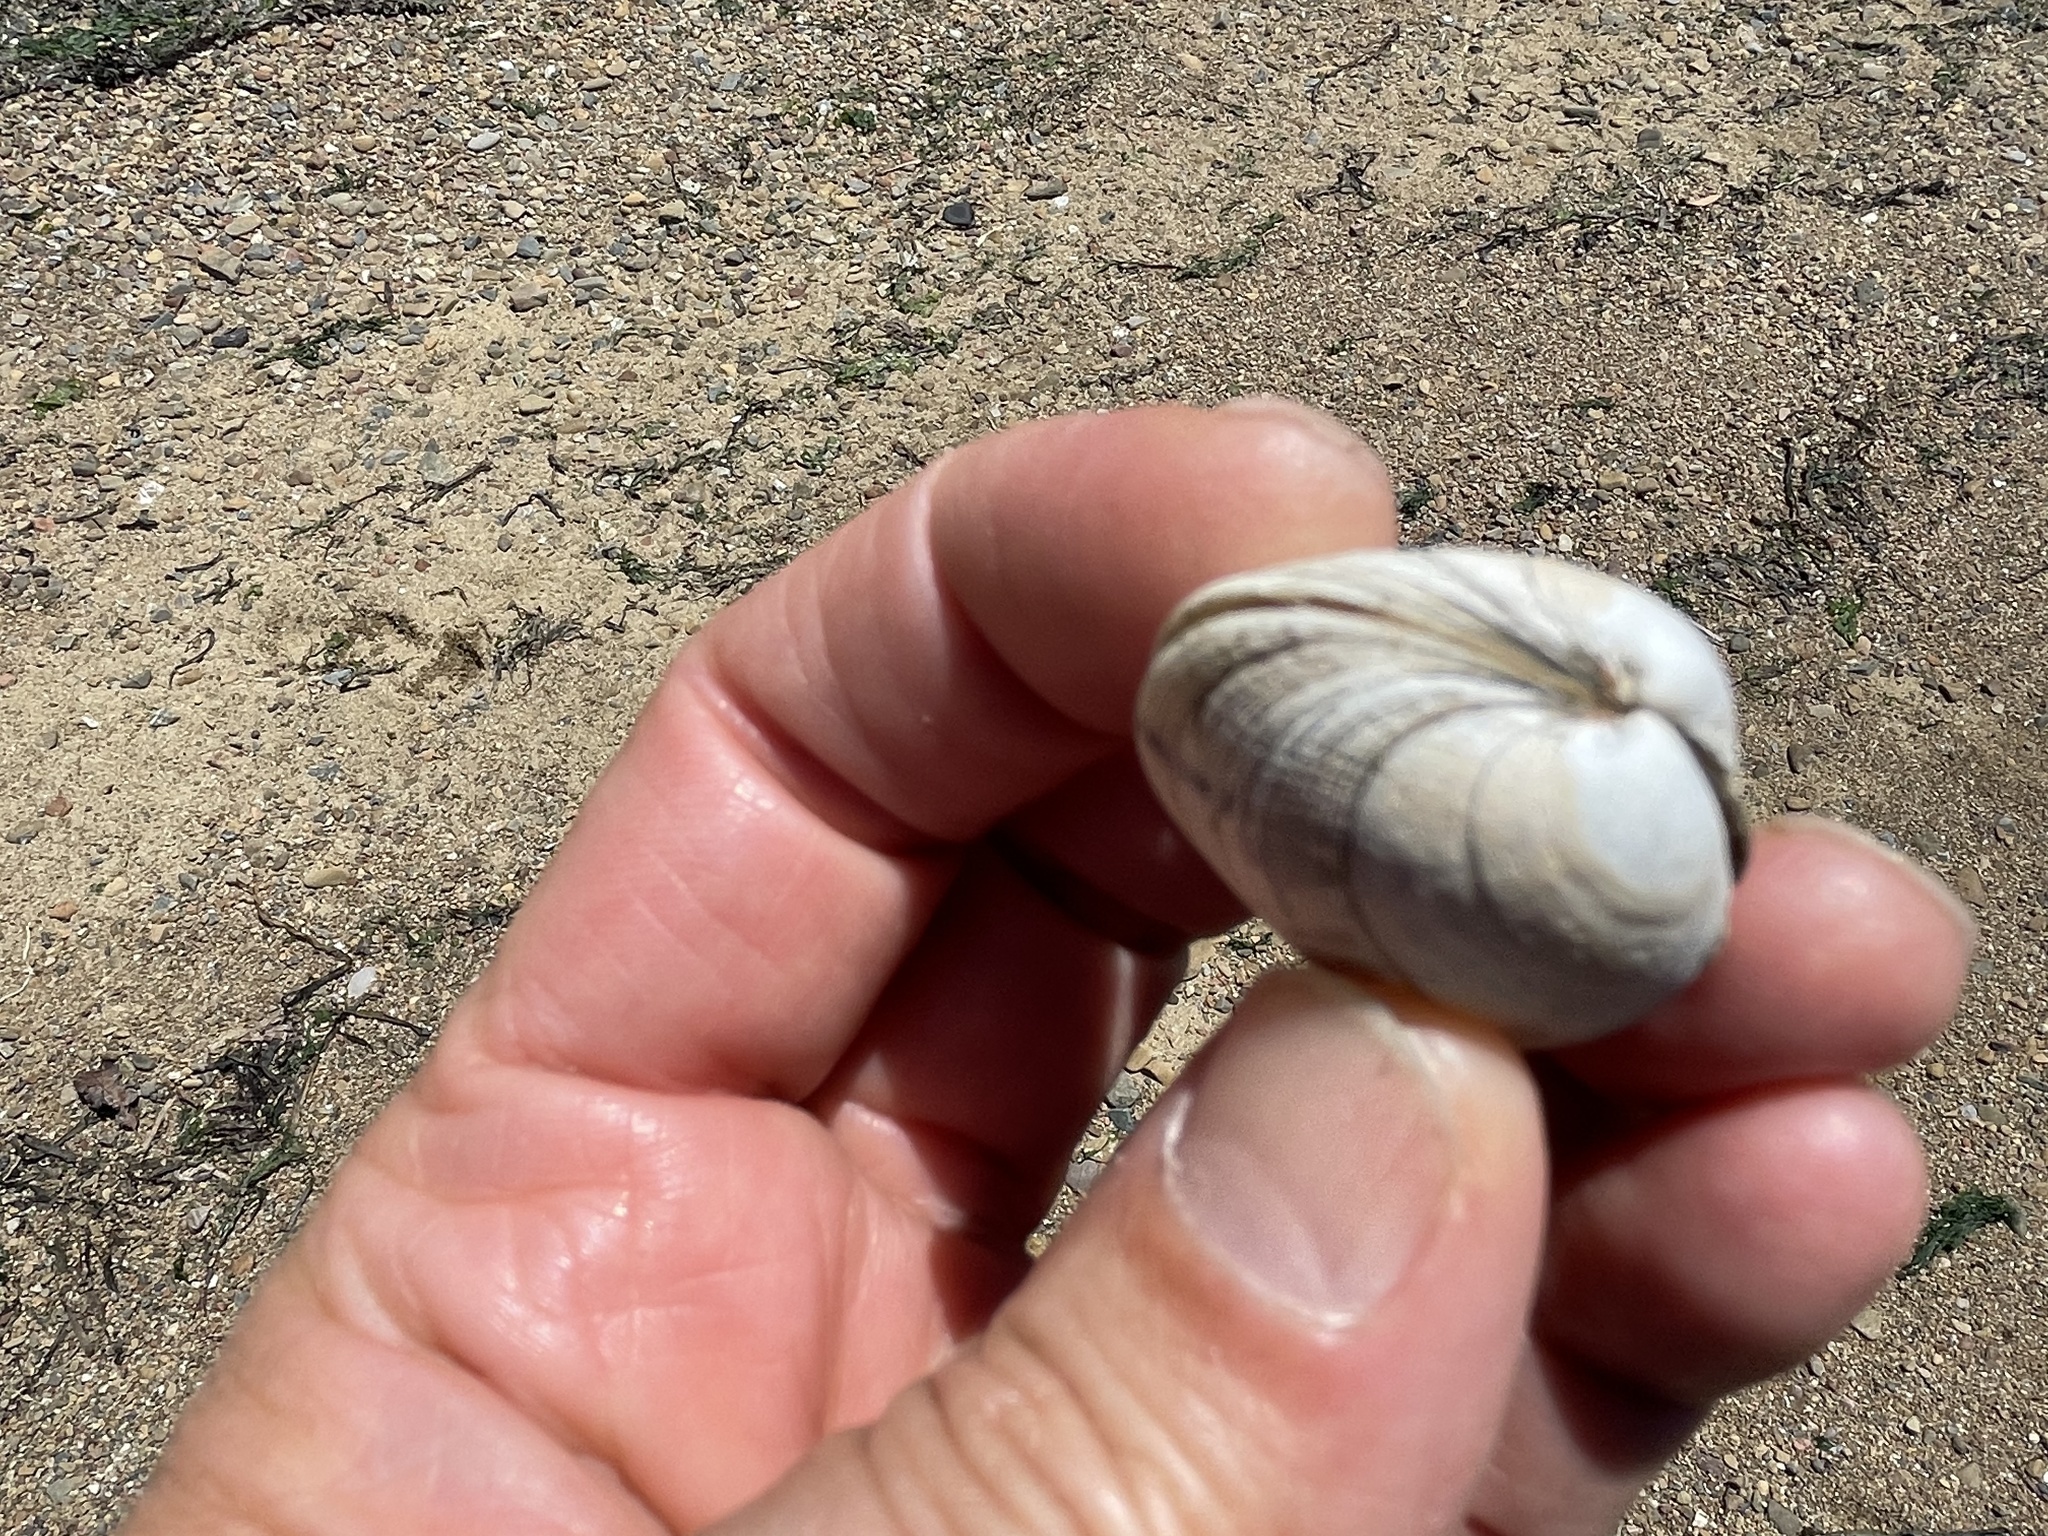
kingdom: Animalia
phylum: Mollusca
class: Bivalvia
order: Venerida
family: Veneridae
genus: Ruditapes
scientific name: Ruditapes philippinarum
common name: Manila clam
